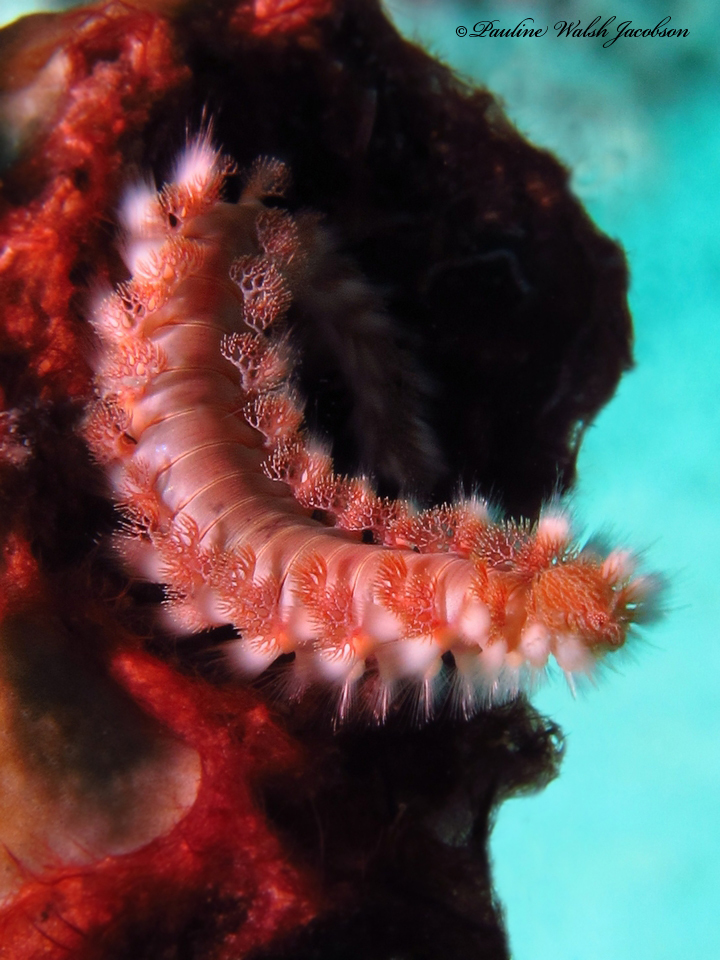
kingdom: Animalia
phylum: Annelida
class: Polychaeta
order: Amphinomida
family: Amphinomidae
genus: Hermodice
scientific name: Hermodice carunculata
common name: Bearded fireworm
